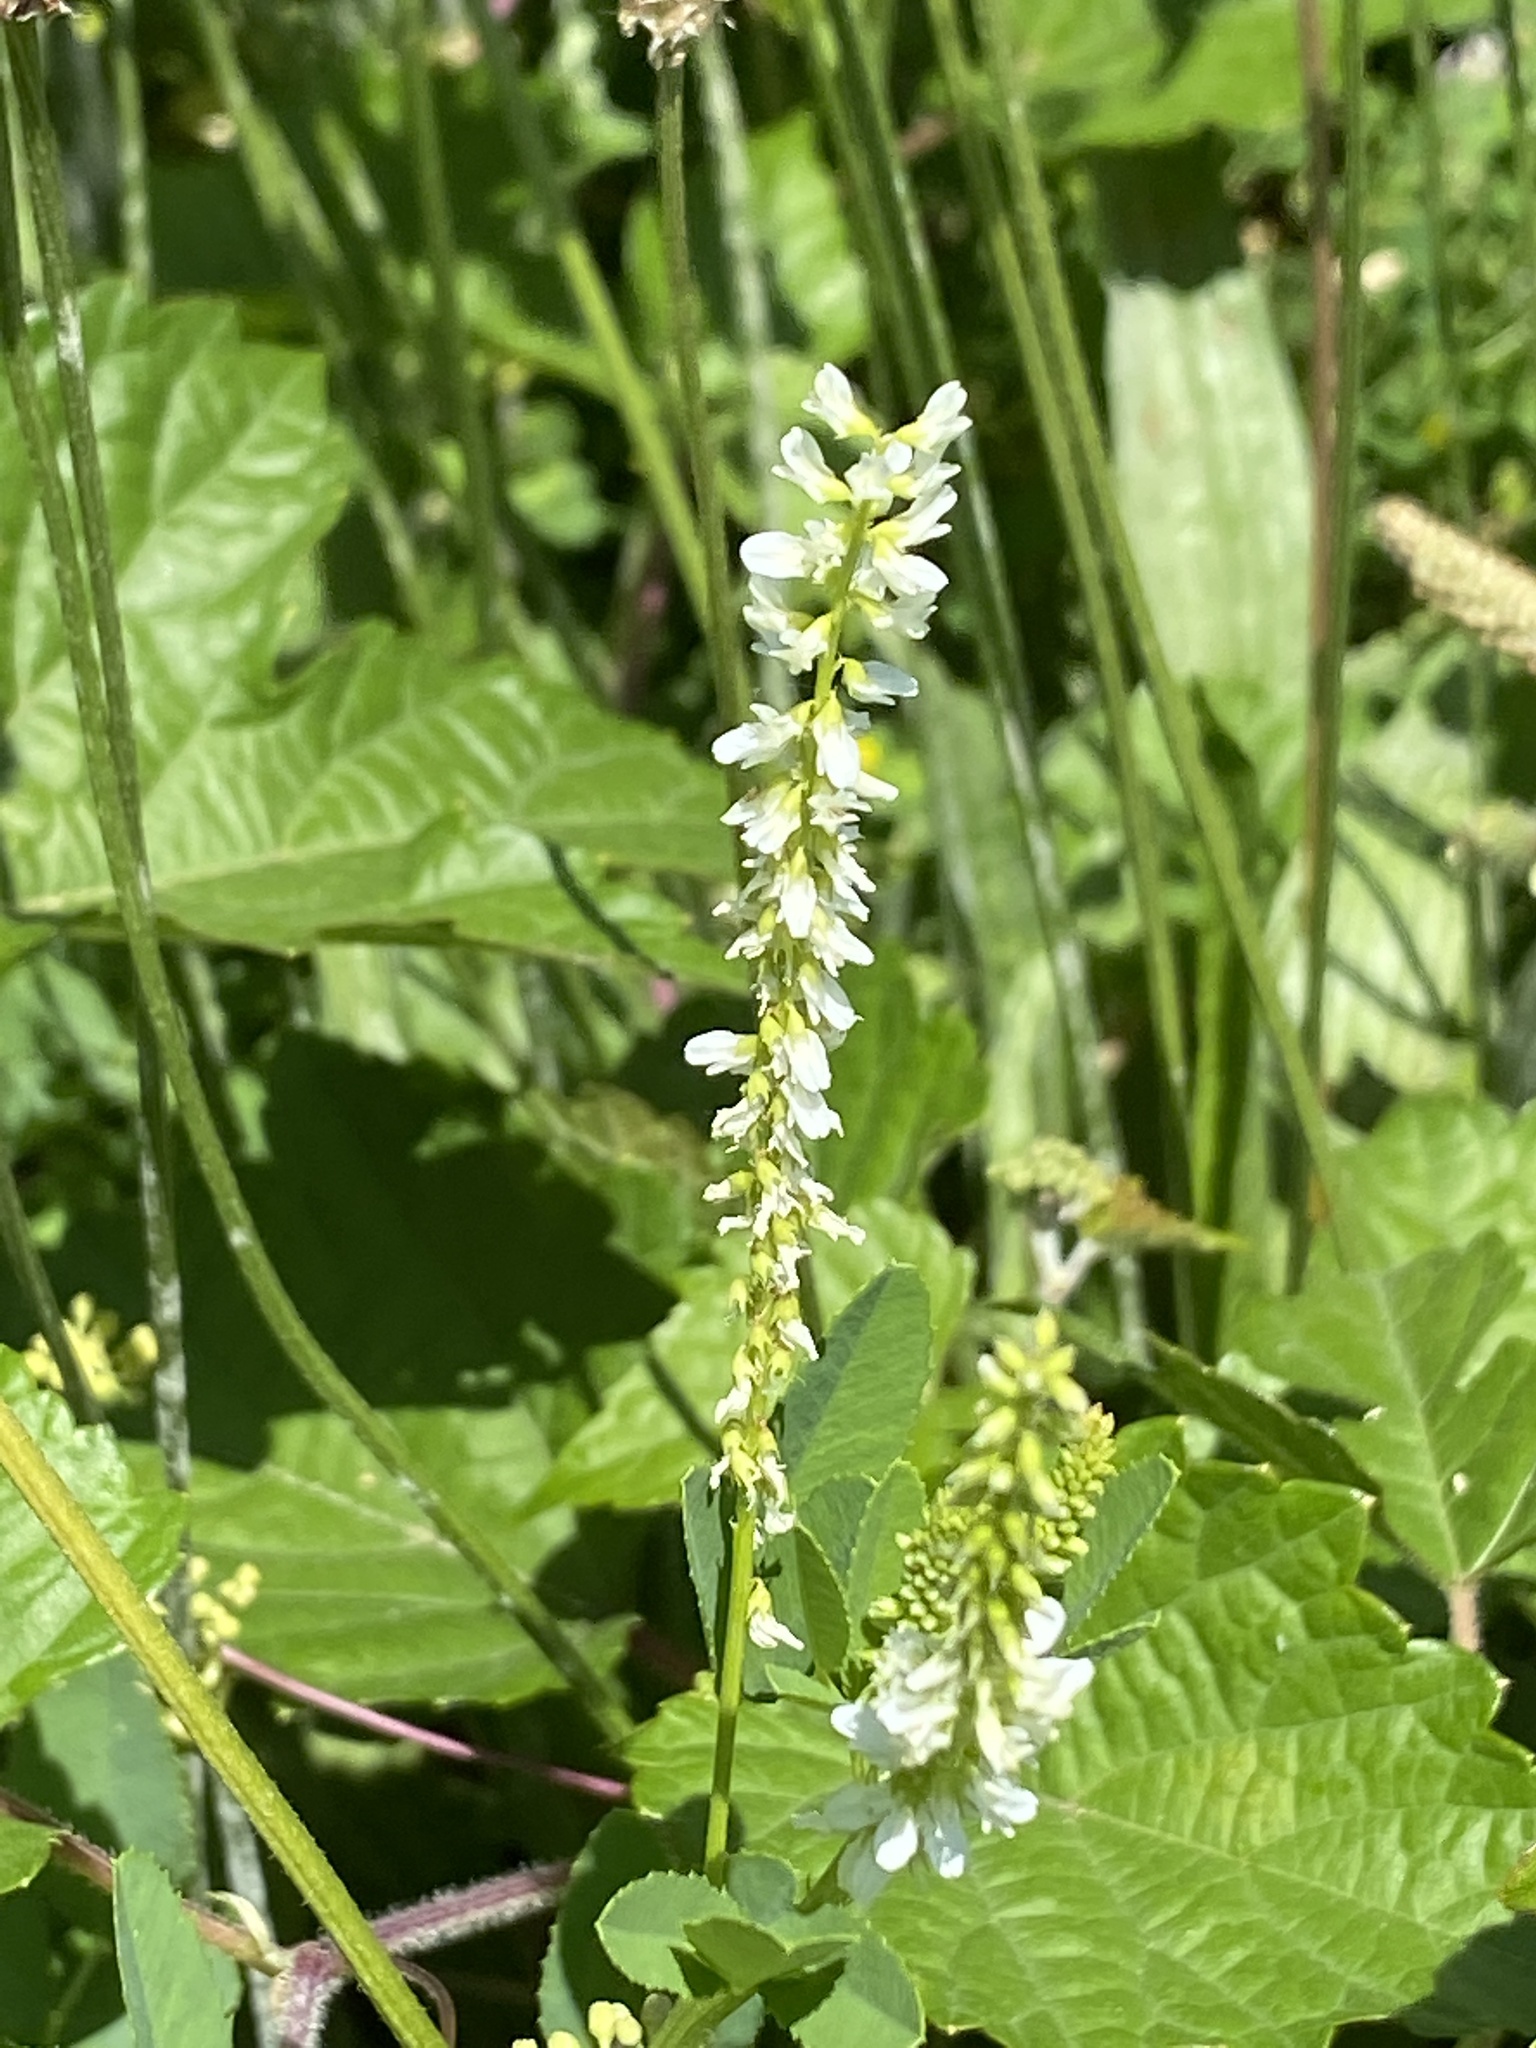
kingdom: Plantae
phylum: Tracheophyta
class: Magnoliopsida
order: Fabales
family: Fabaceae
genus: Melilotus
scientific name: Melilotus albus
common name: White melilot
